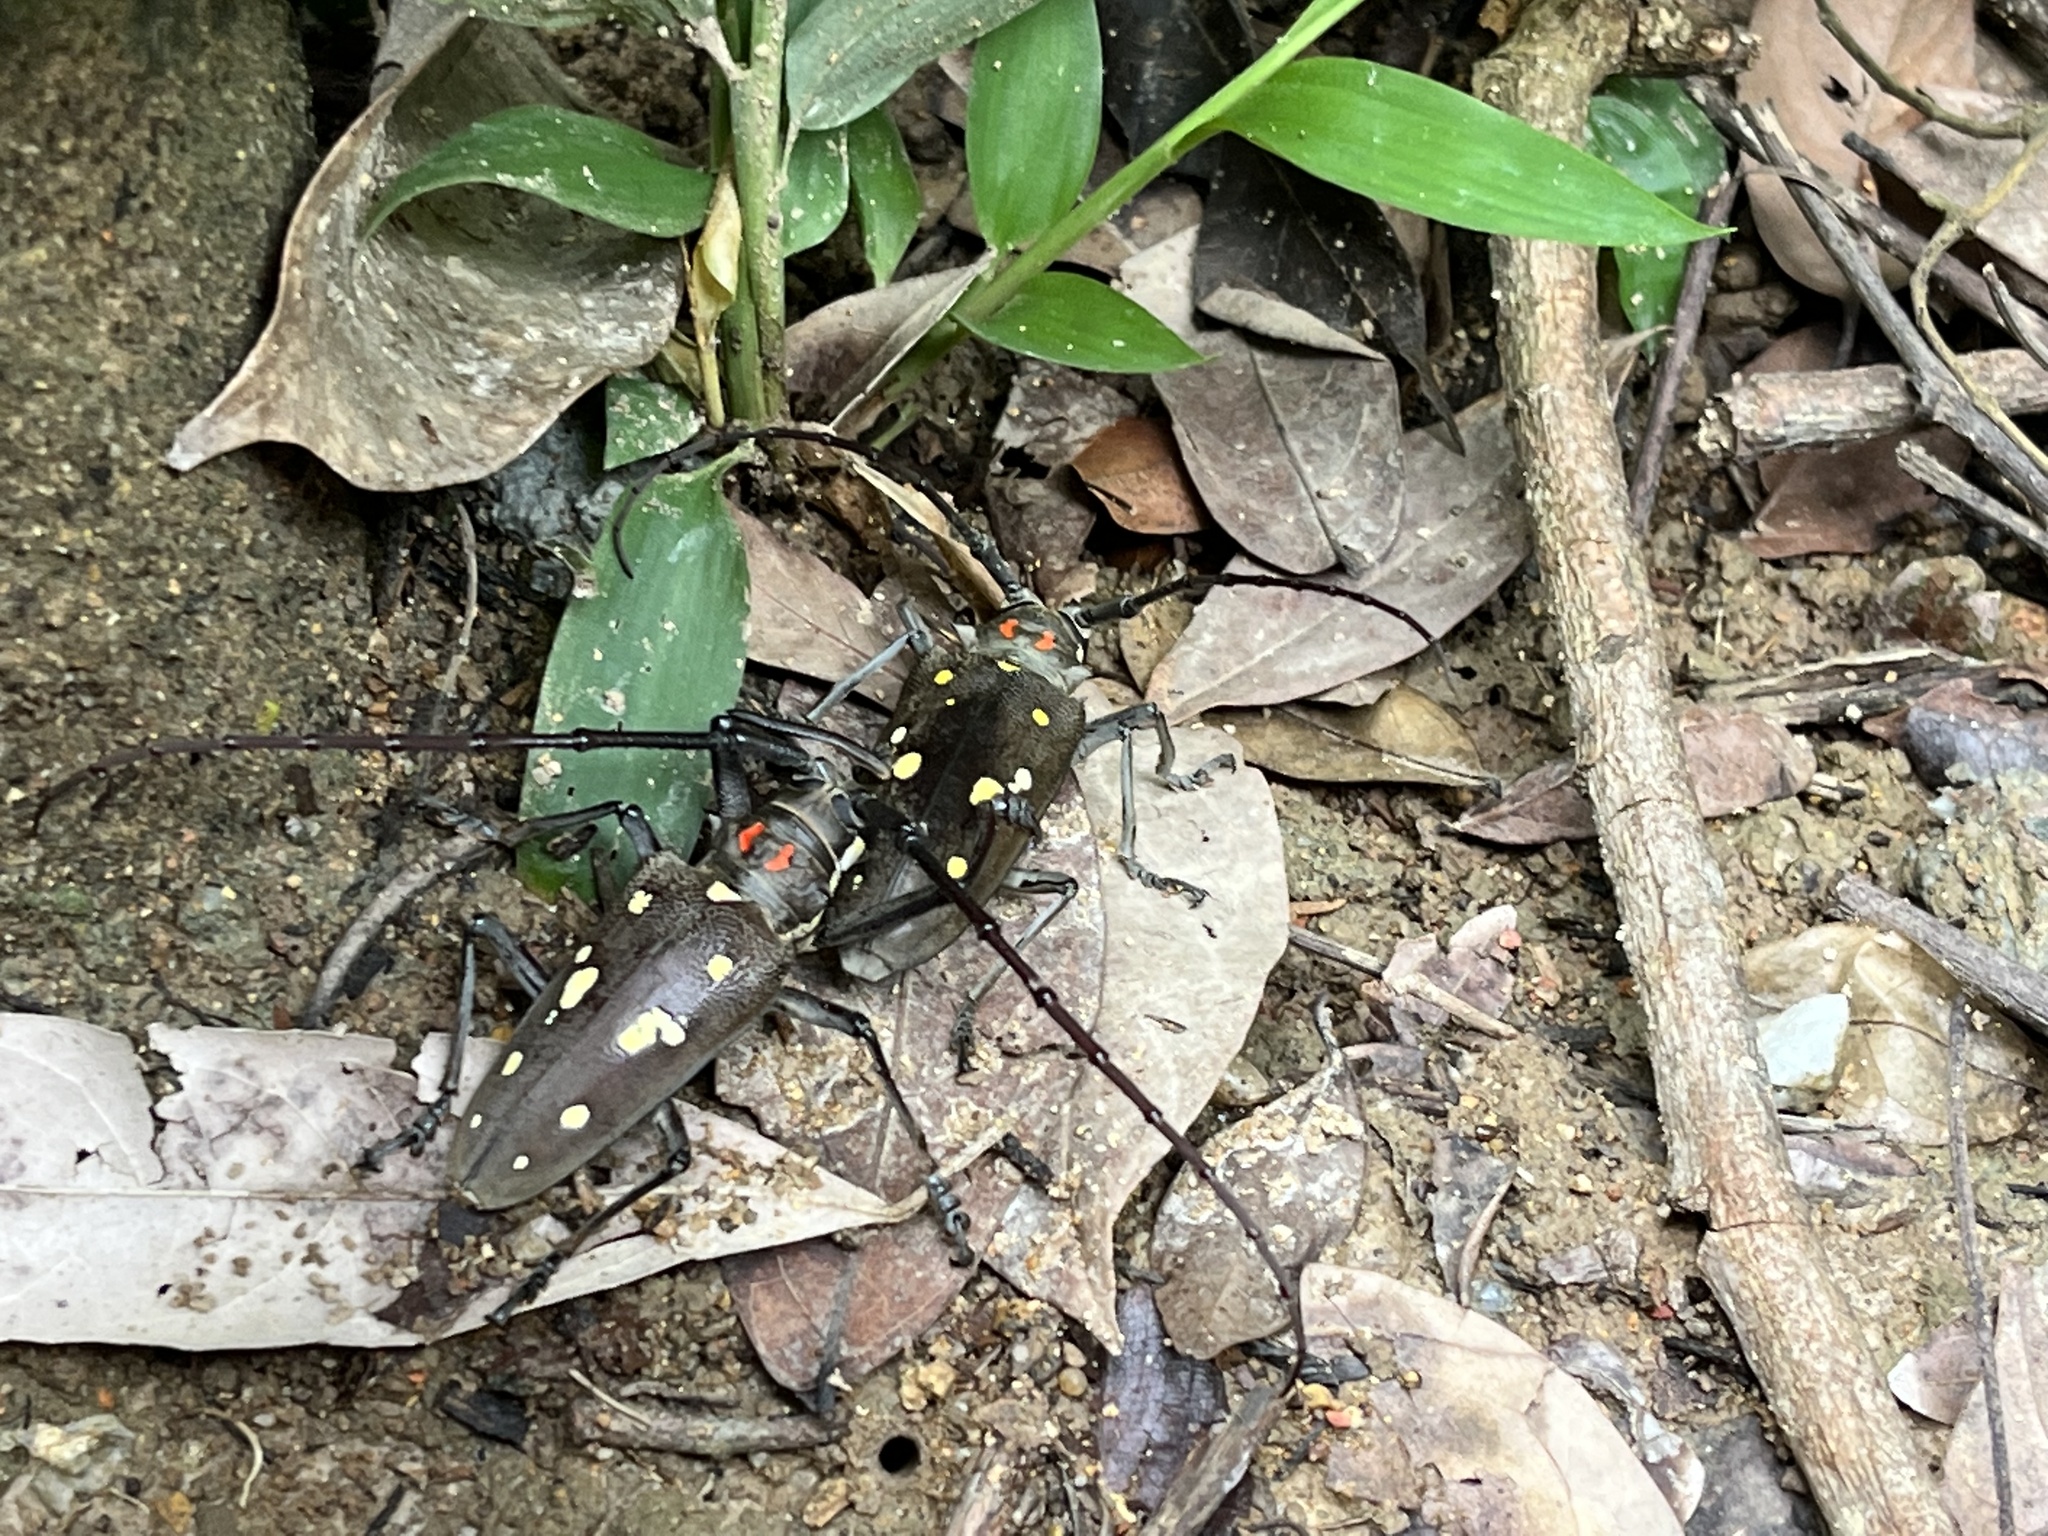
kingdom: Animalia
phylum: Arthropoda
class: Insecta
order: Coleoptera
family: Cerambycidae
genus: Batocera
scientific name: Batocera rubus
